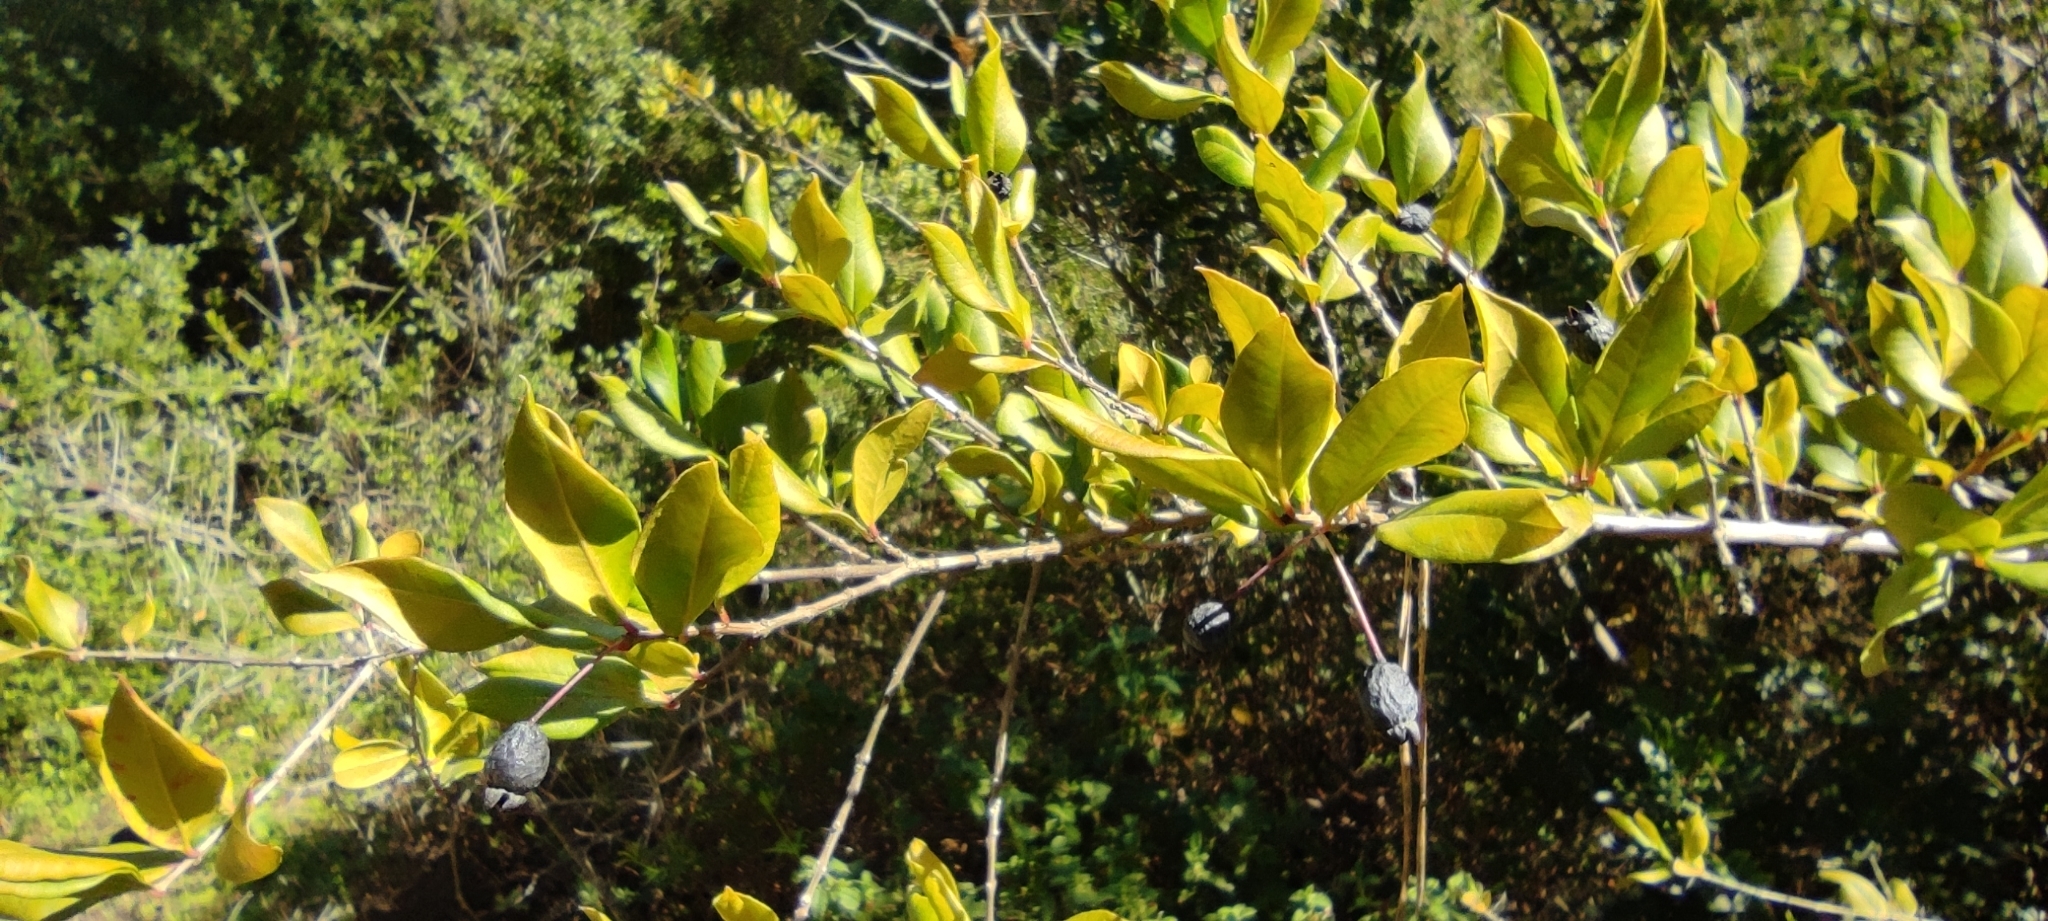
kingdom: Plantae
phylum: Tracheophyta
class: Magnoliopsida
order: Myrtales
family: Myrtaceae
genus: Myrtus
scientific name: Myrtus communis
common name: Myrtle
